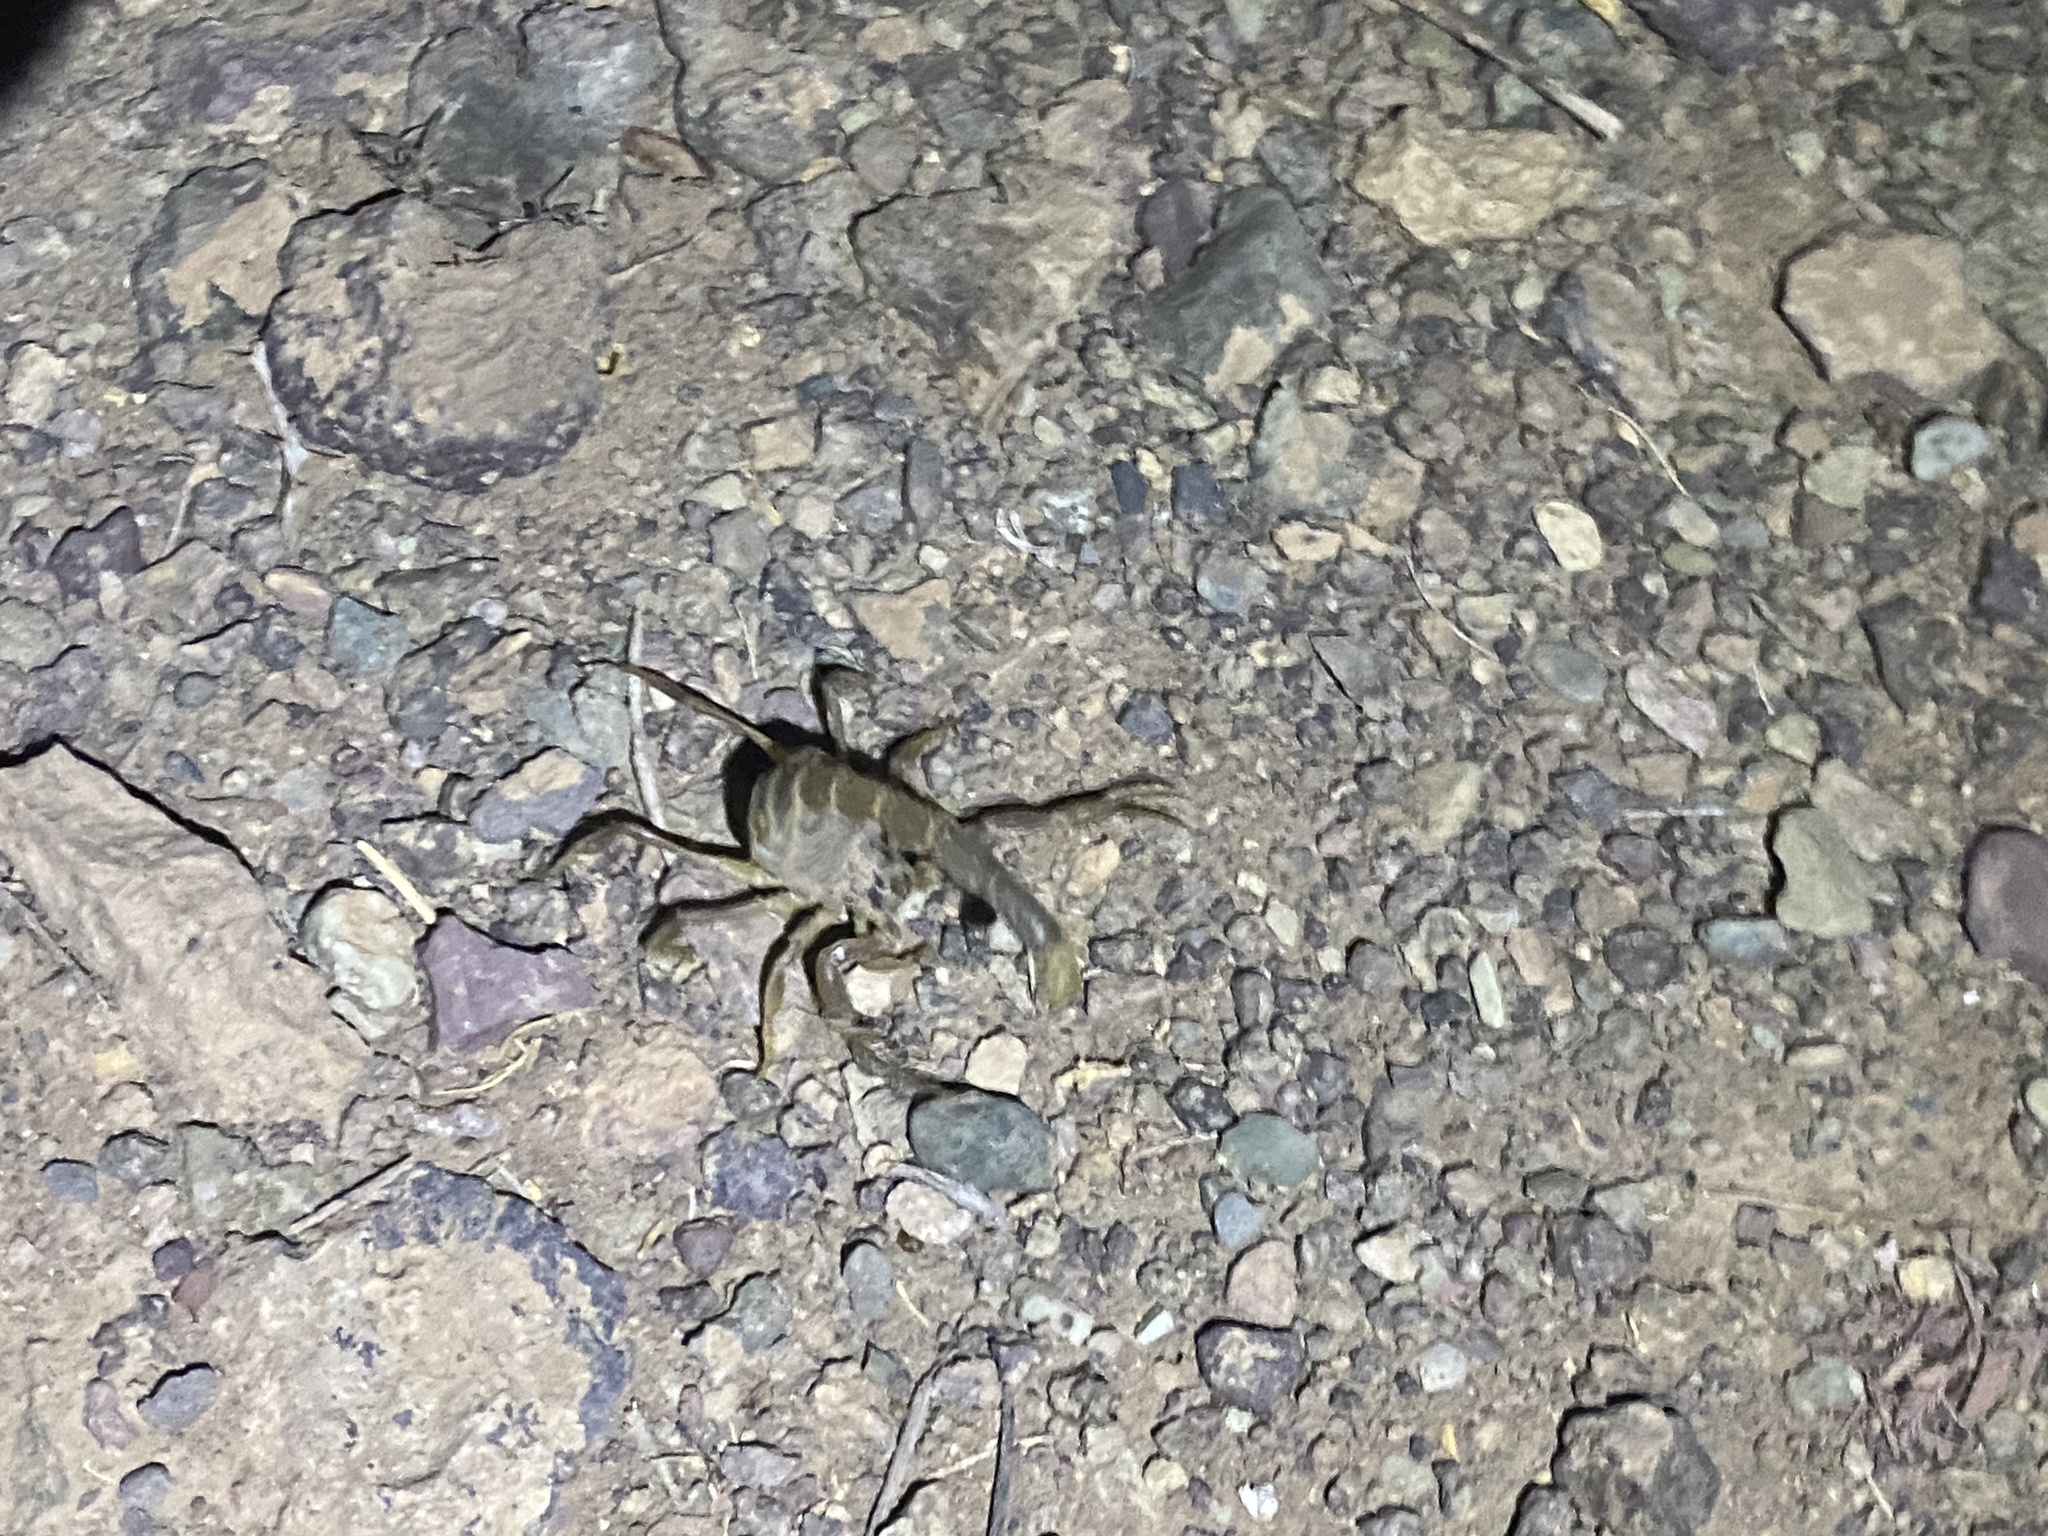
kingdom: Animalia
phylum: Arthropoda
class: Arachnida
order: Scorpiones
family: Buthidae
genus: Odontobuthus
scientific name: Odontobuthus doriae
